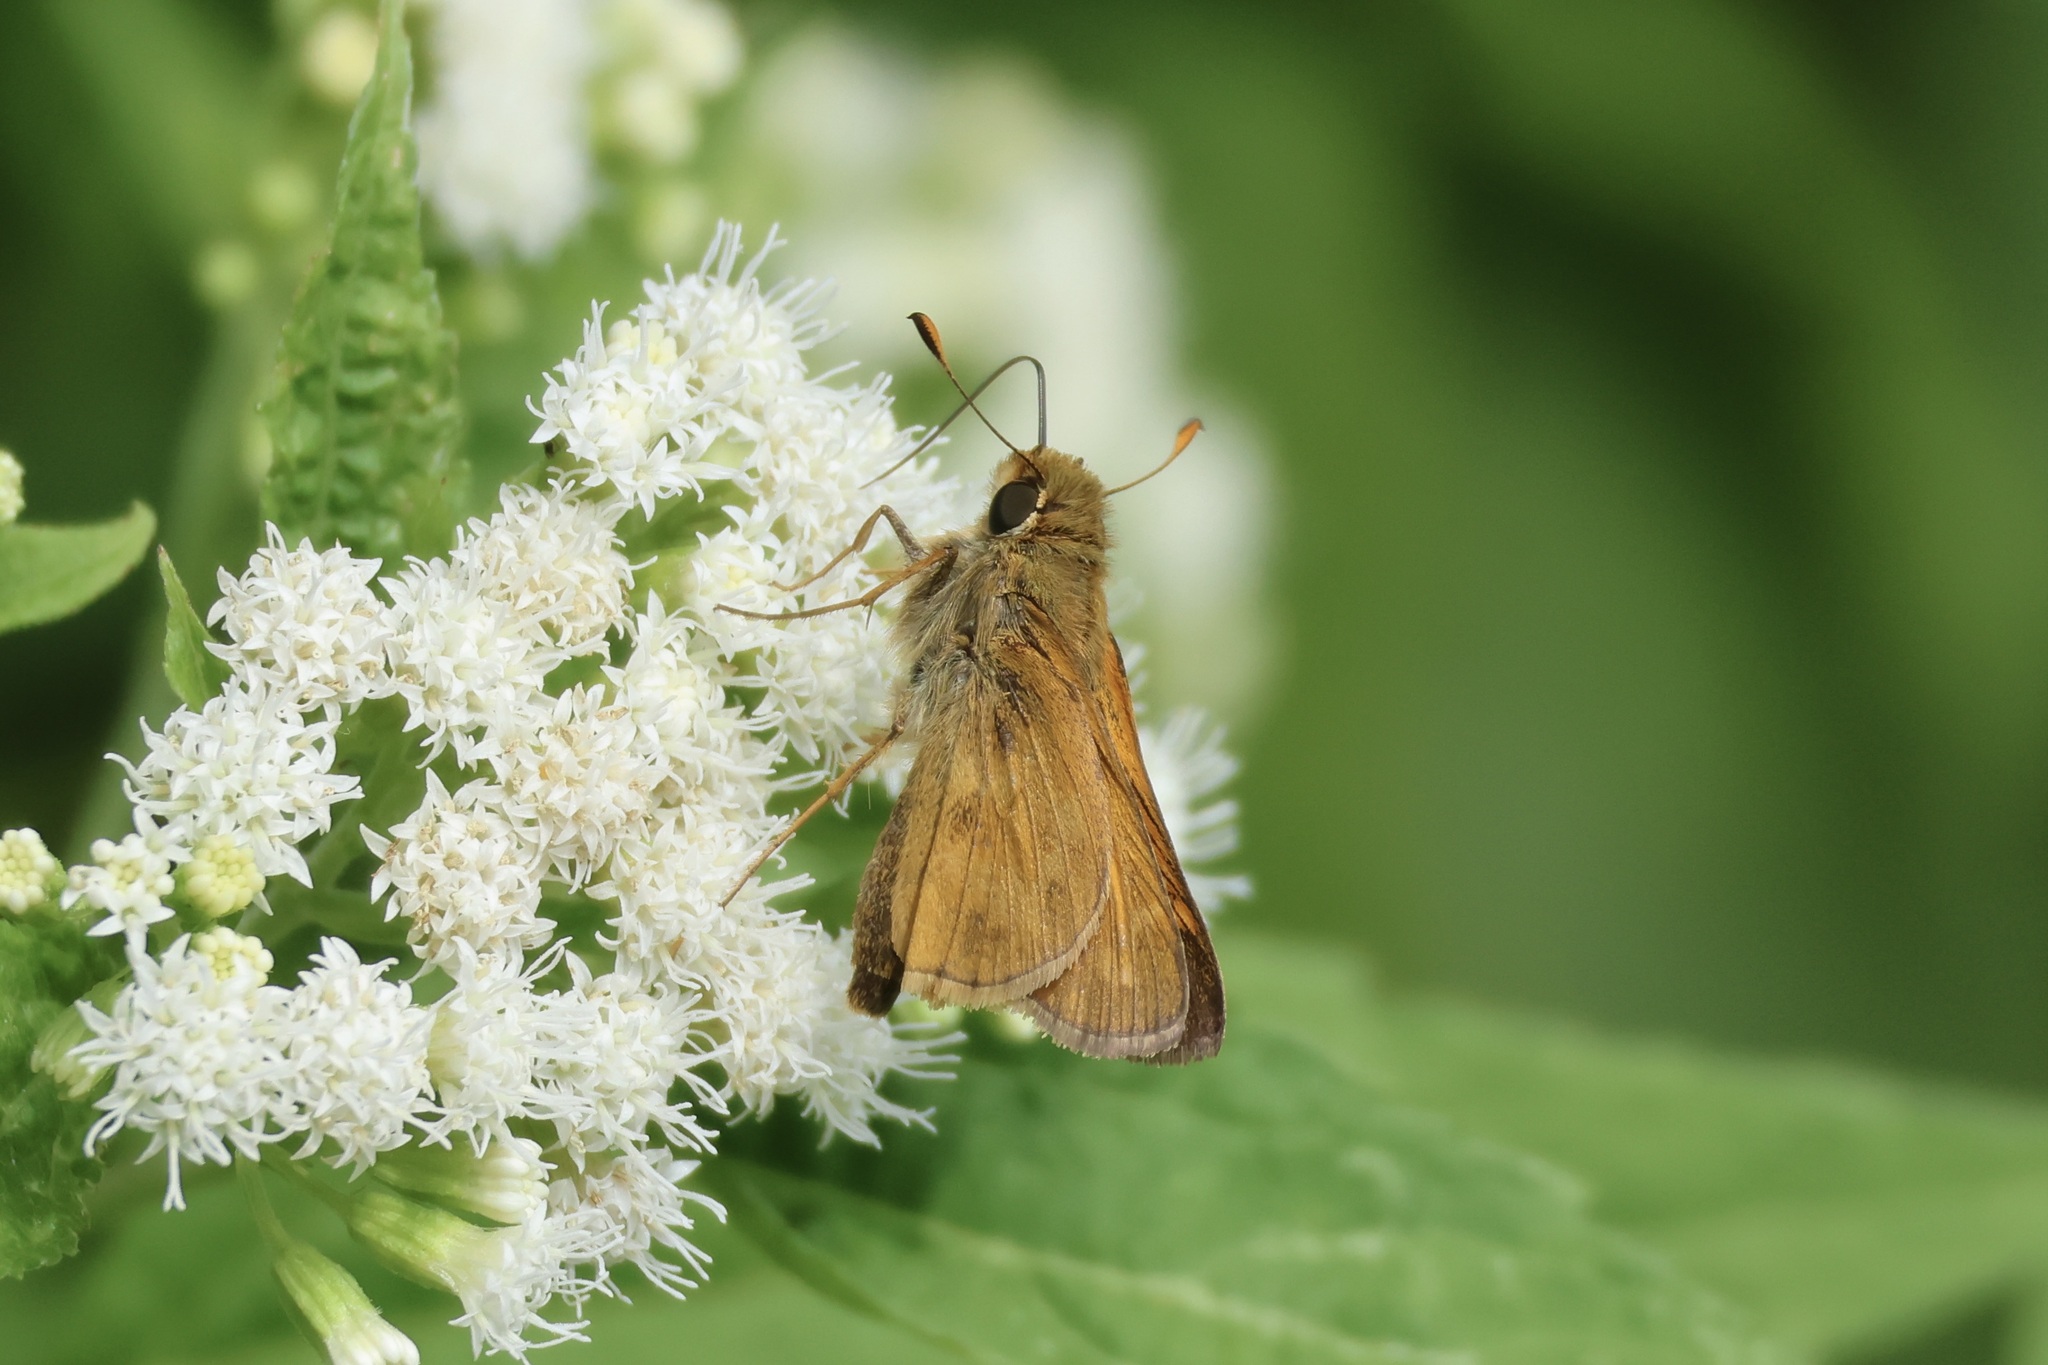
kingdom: Animalia
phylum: Arthropoda
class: Insecta
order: Lepidoptera
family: Hesperiidae
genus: Atalopedes
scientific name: Atalopedes
